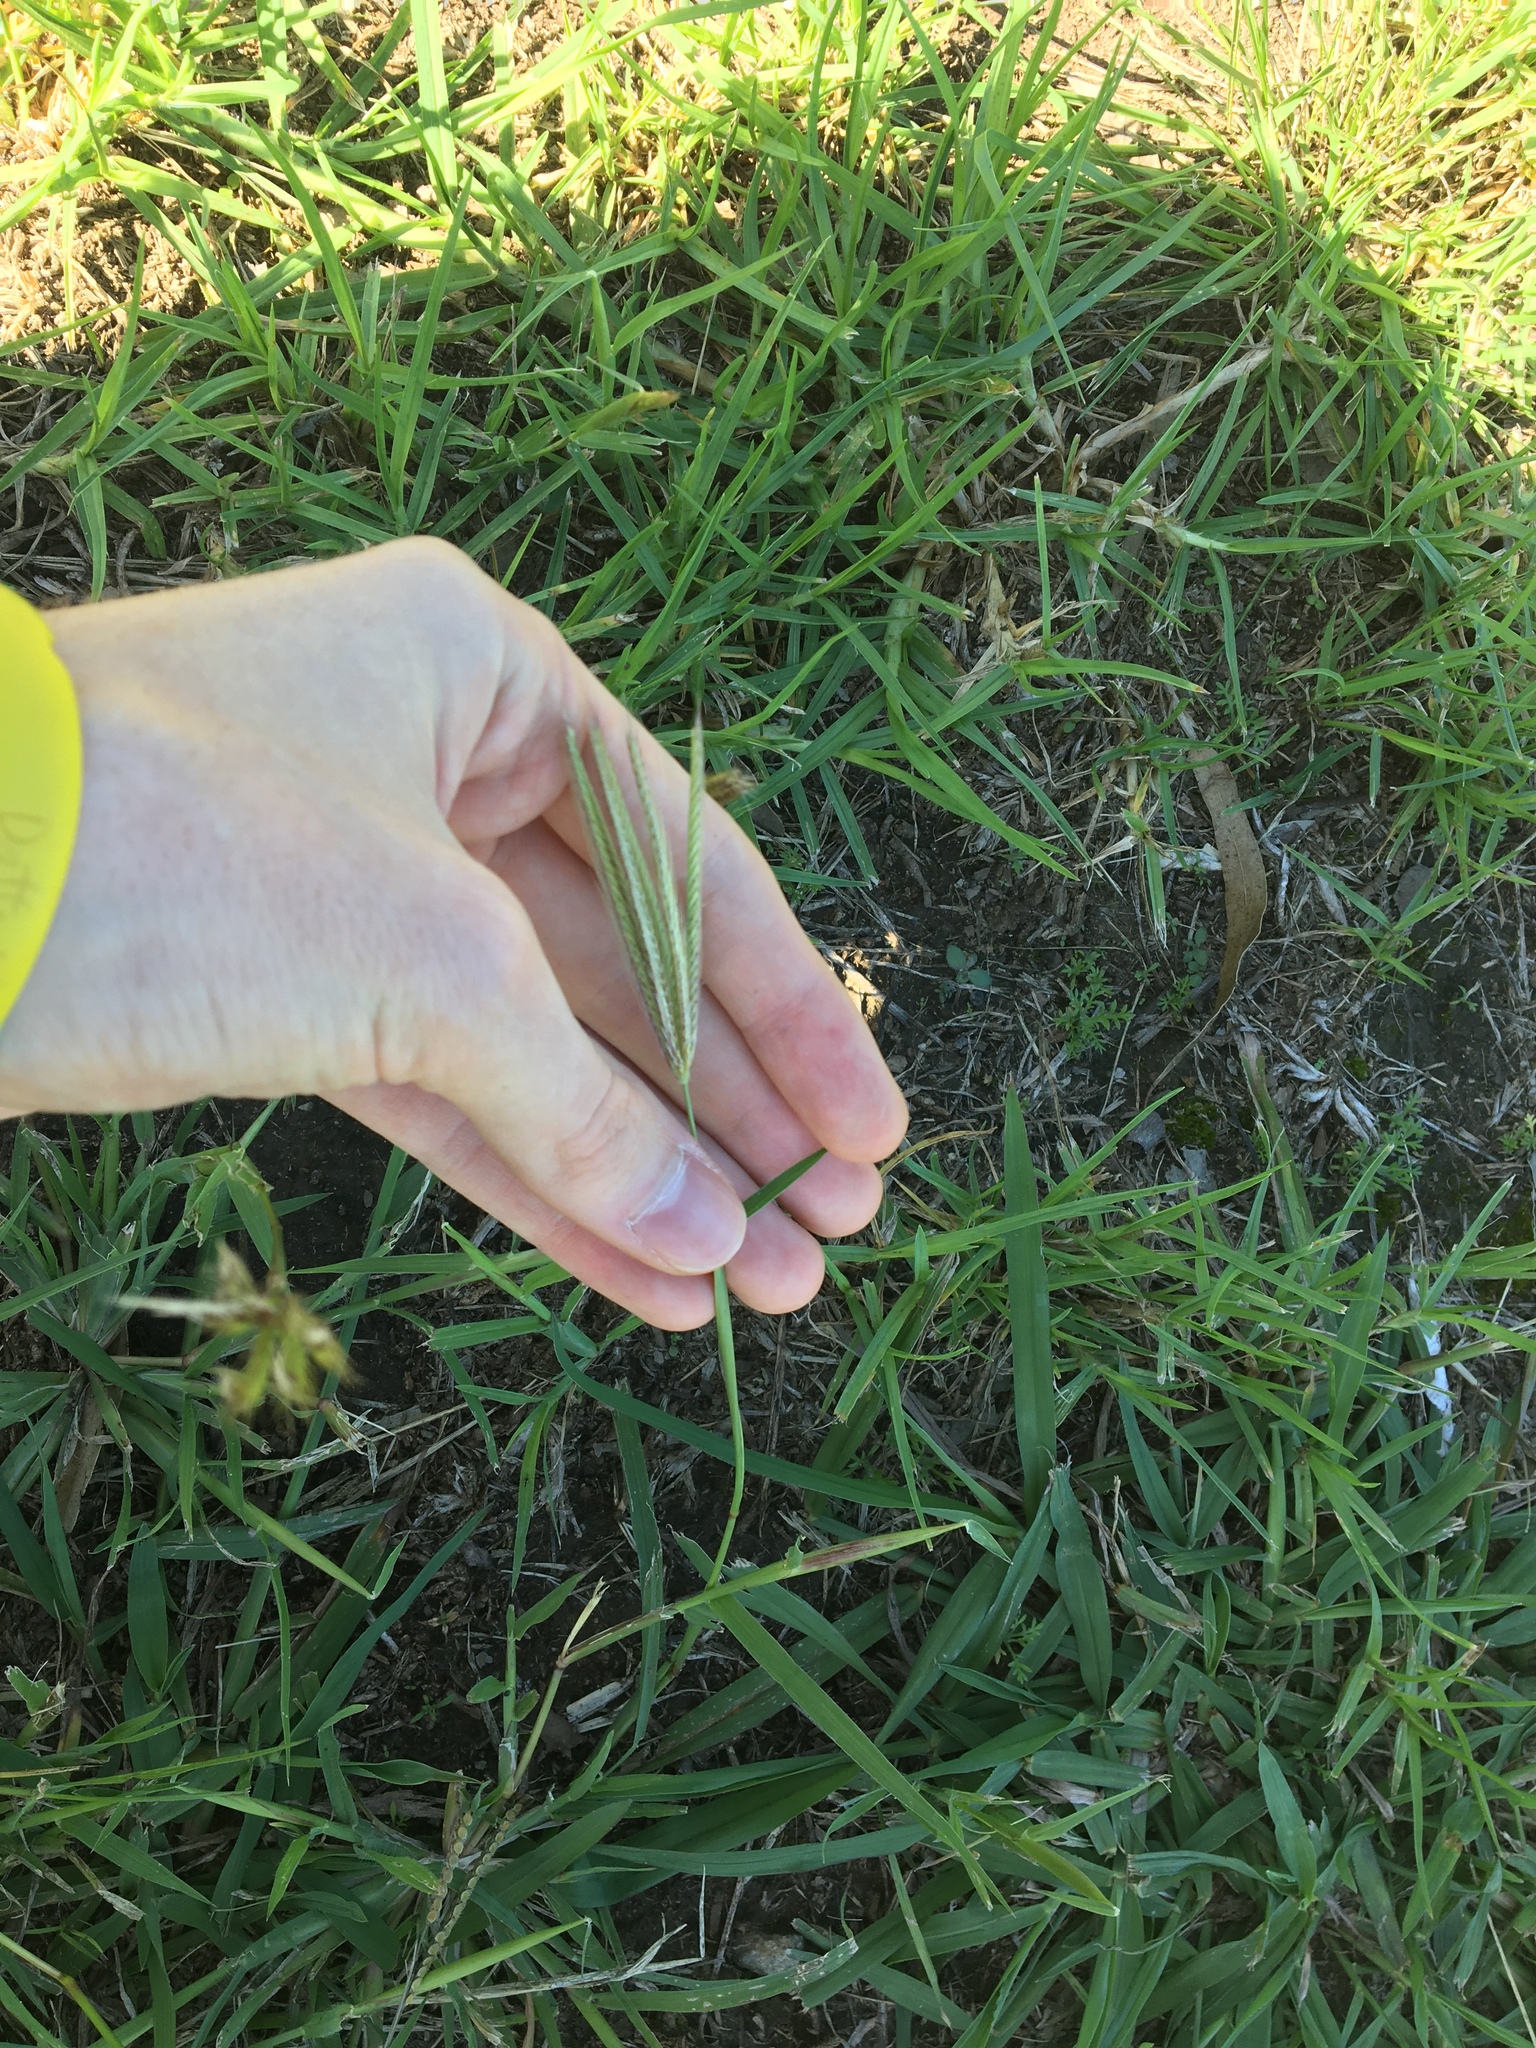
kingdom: Plantae
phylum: Tracheophyta
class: Liliopsida
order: Poales
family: Poaceae
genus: Chloris
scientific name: Chloris virgata
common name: Feathery rhodes-grass
